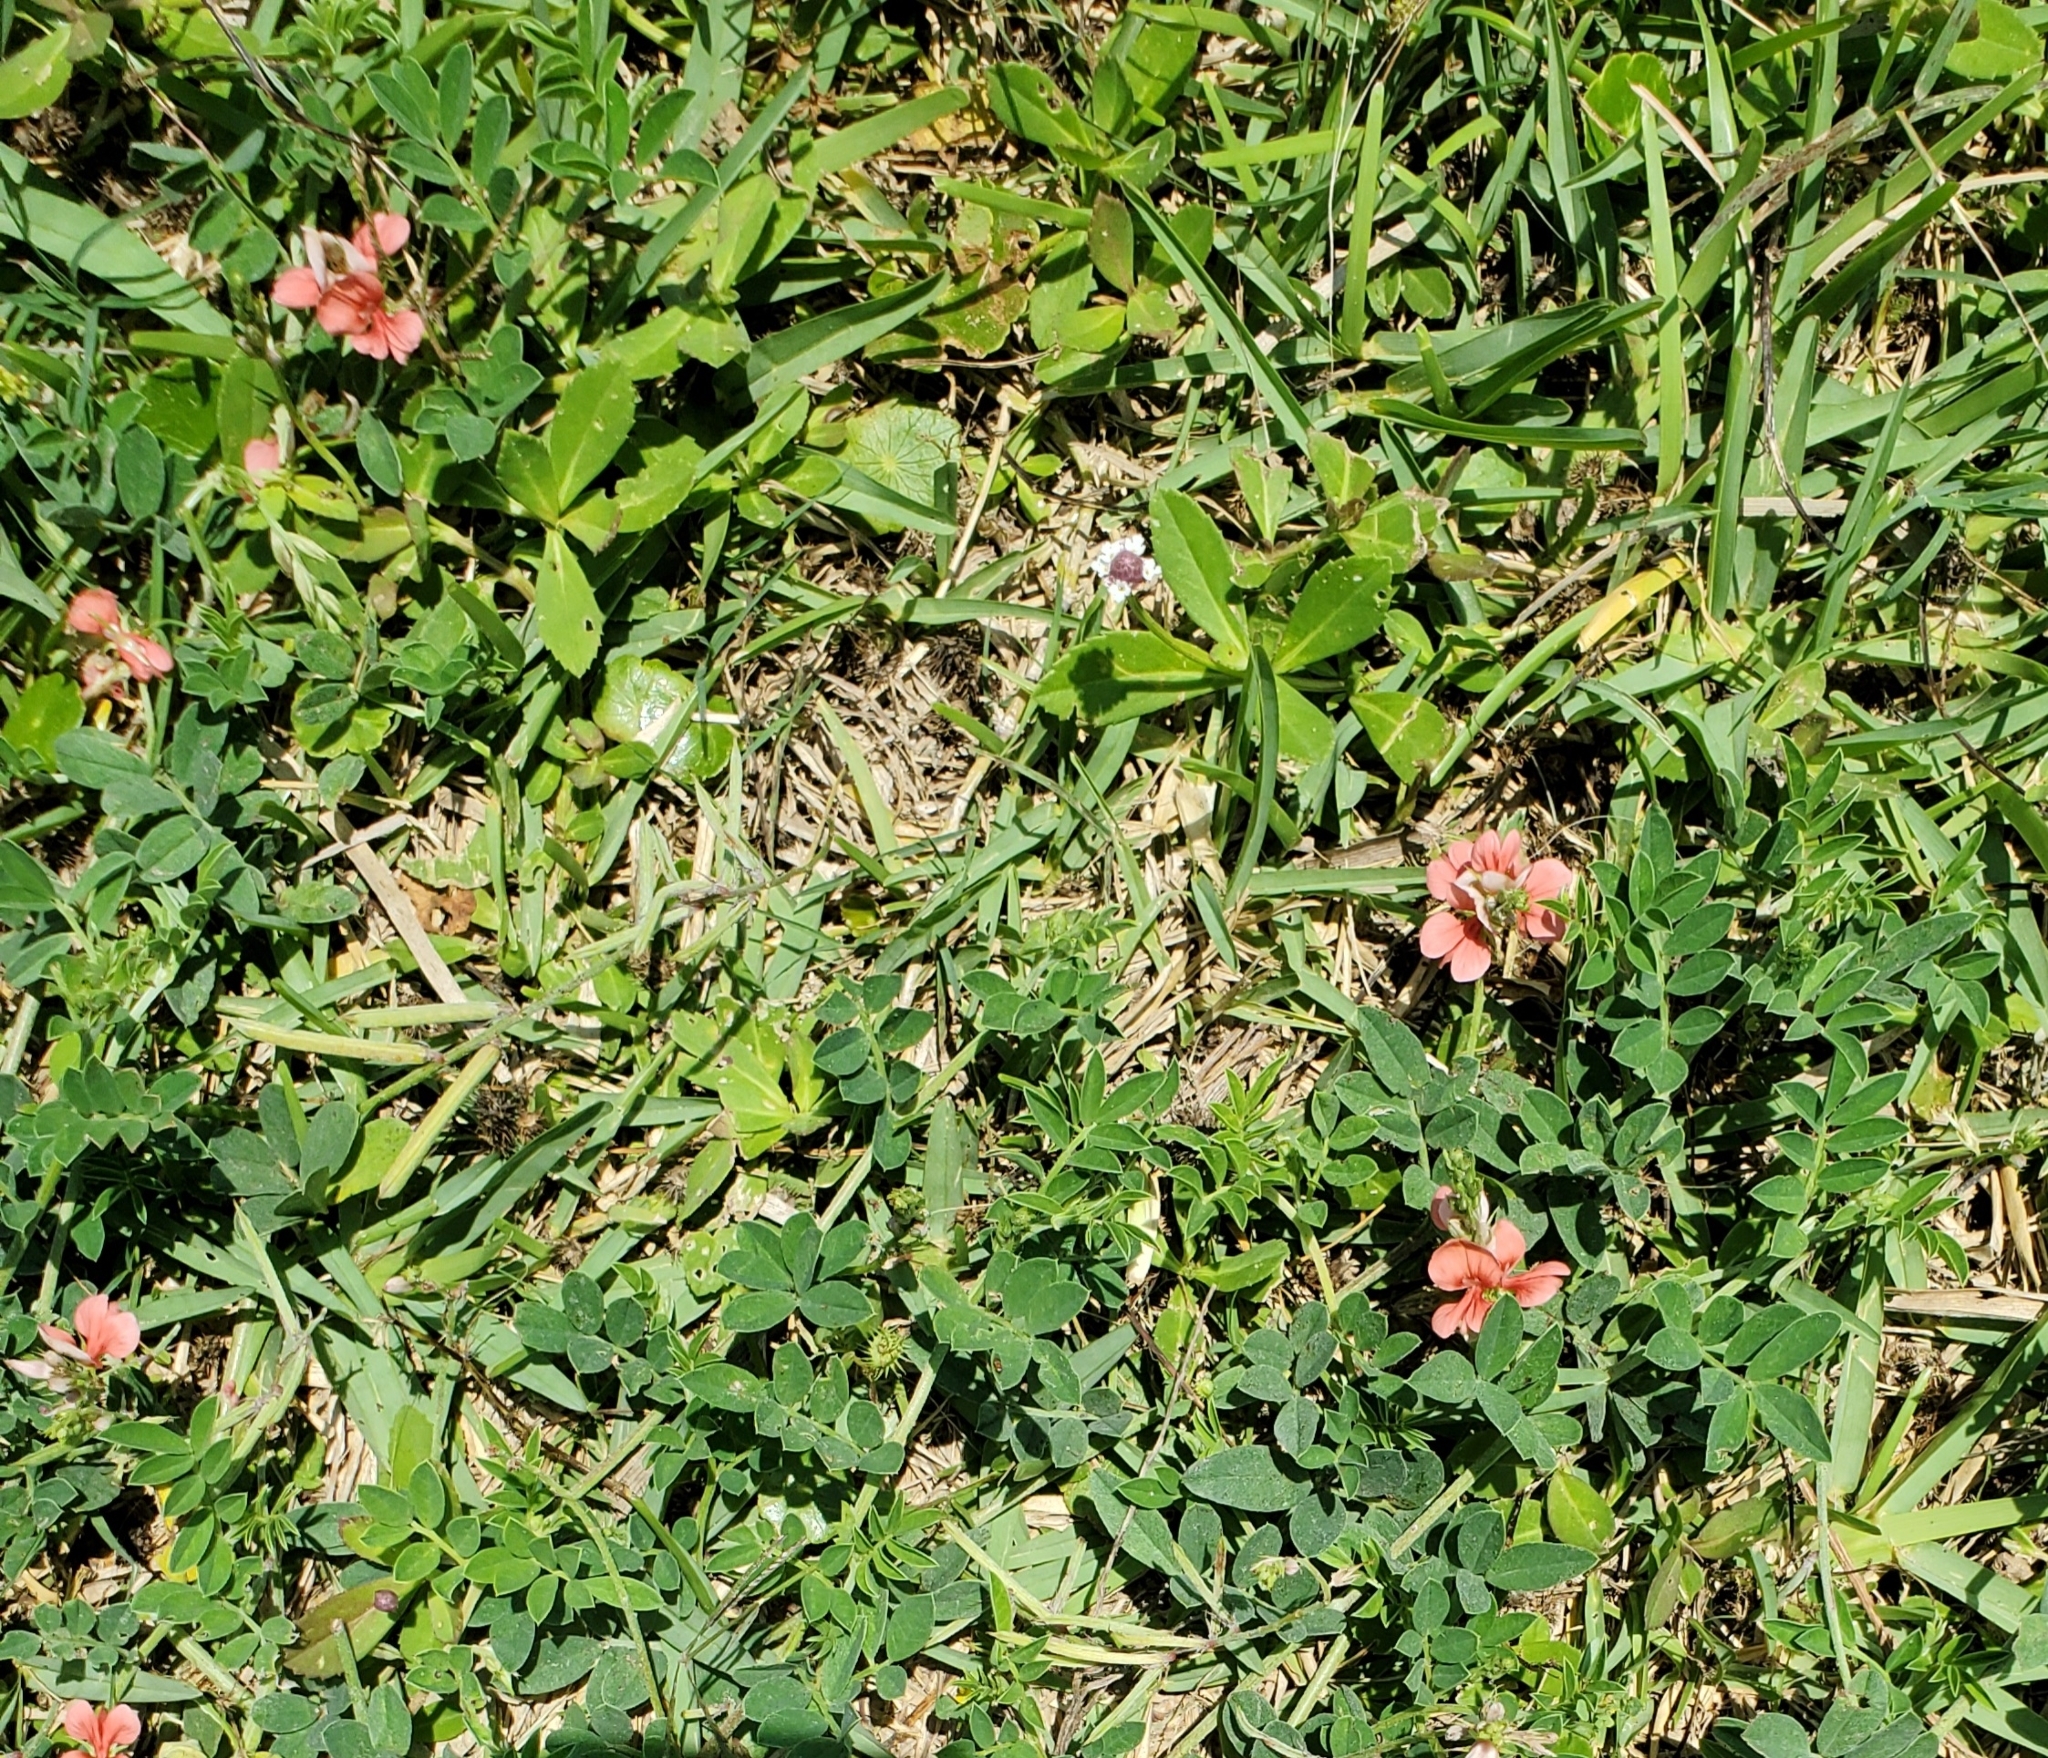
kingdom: Plantae
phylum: Tracheophyta
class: Magnoliopsida
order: Fabales
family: Fabaceae
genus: Indigofera
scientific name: Indigofera miniata
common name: Coast indigo
